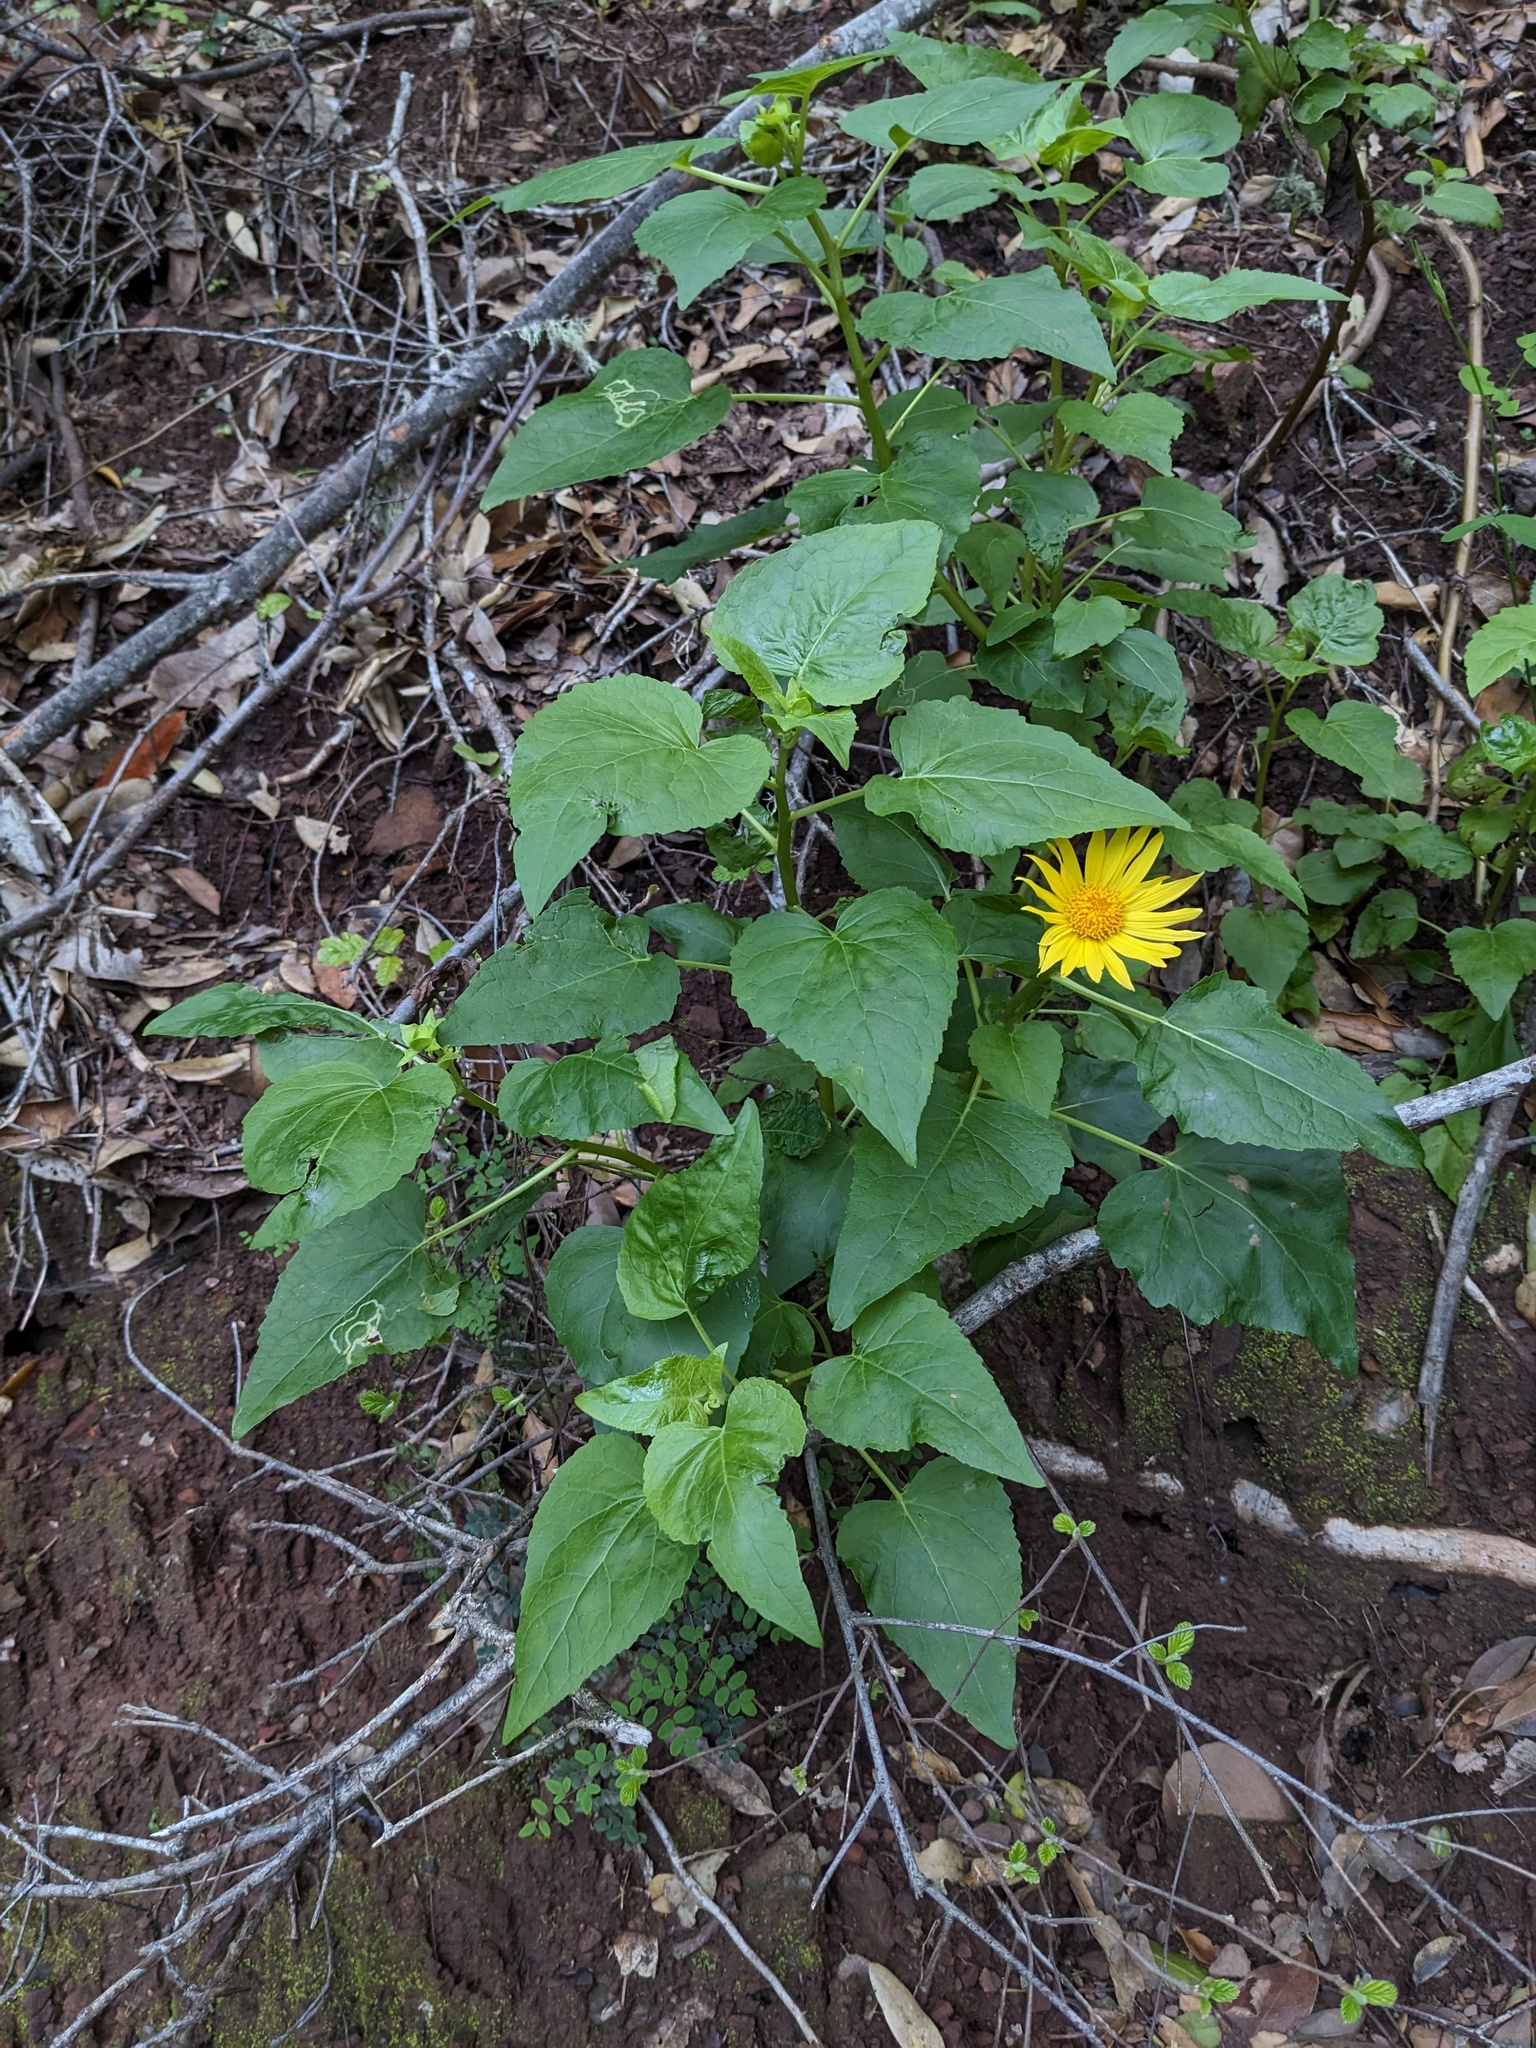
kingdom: Plantae
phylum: Tracheophyta
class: Magnoliopsida
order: Asterales
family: Asteraceae
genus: Venegasia
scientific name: Venegasia carpesioides
